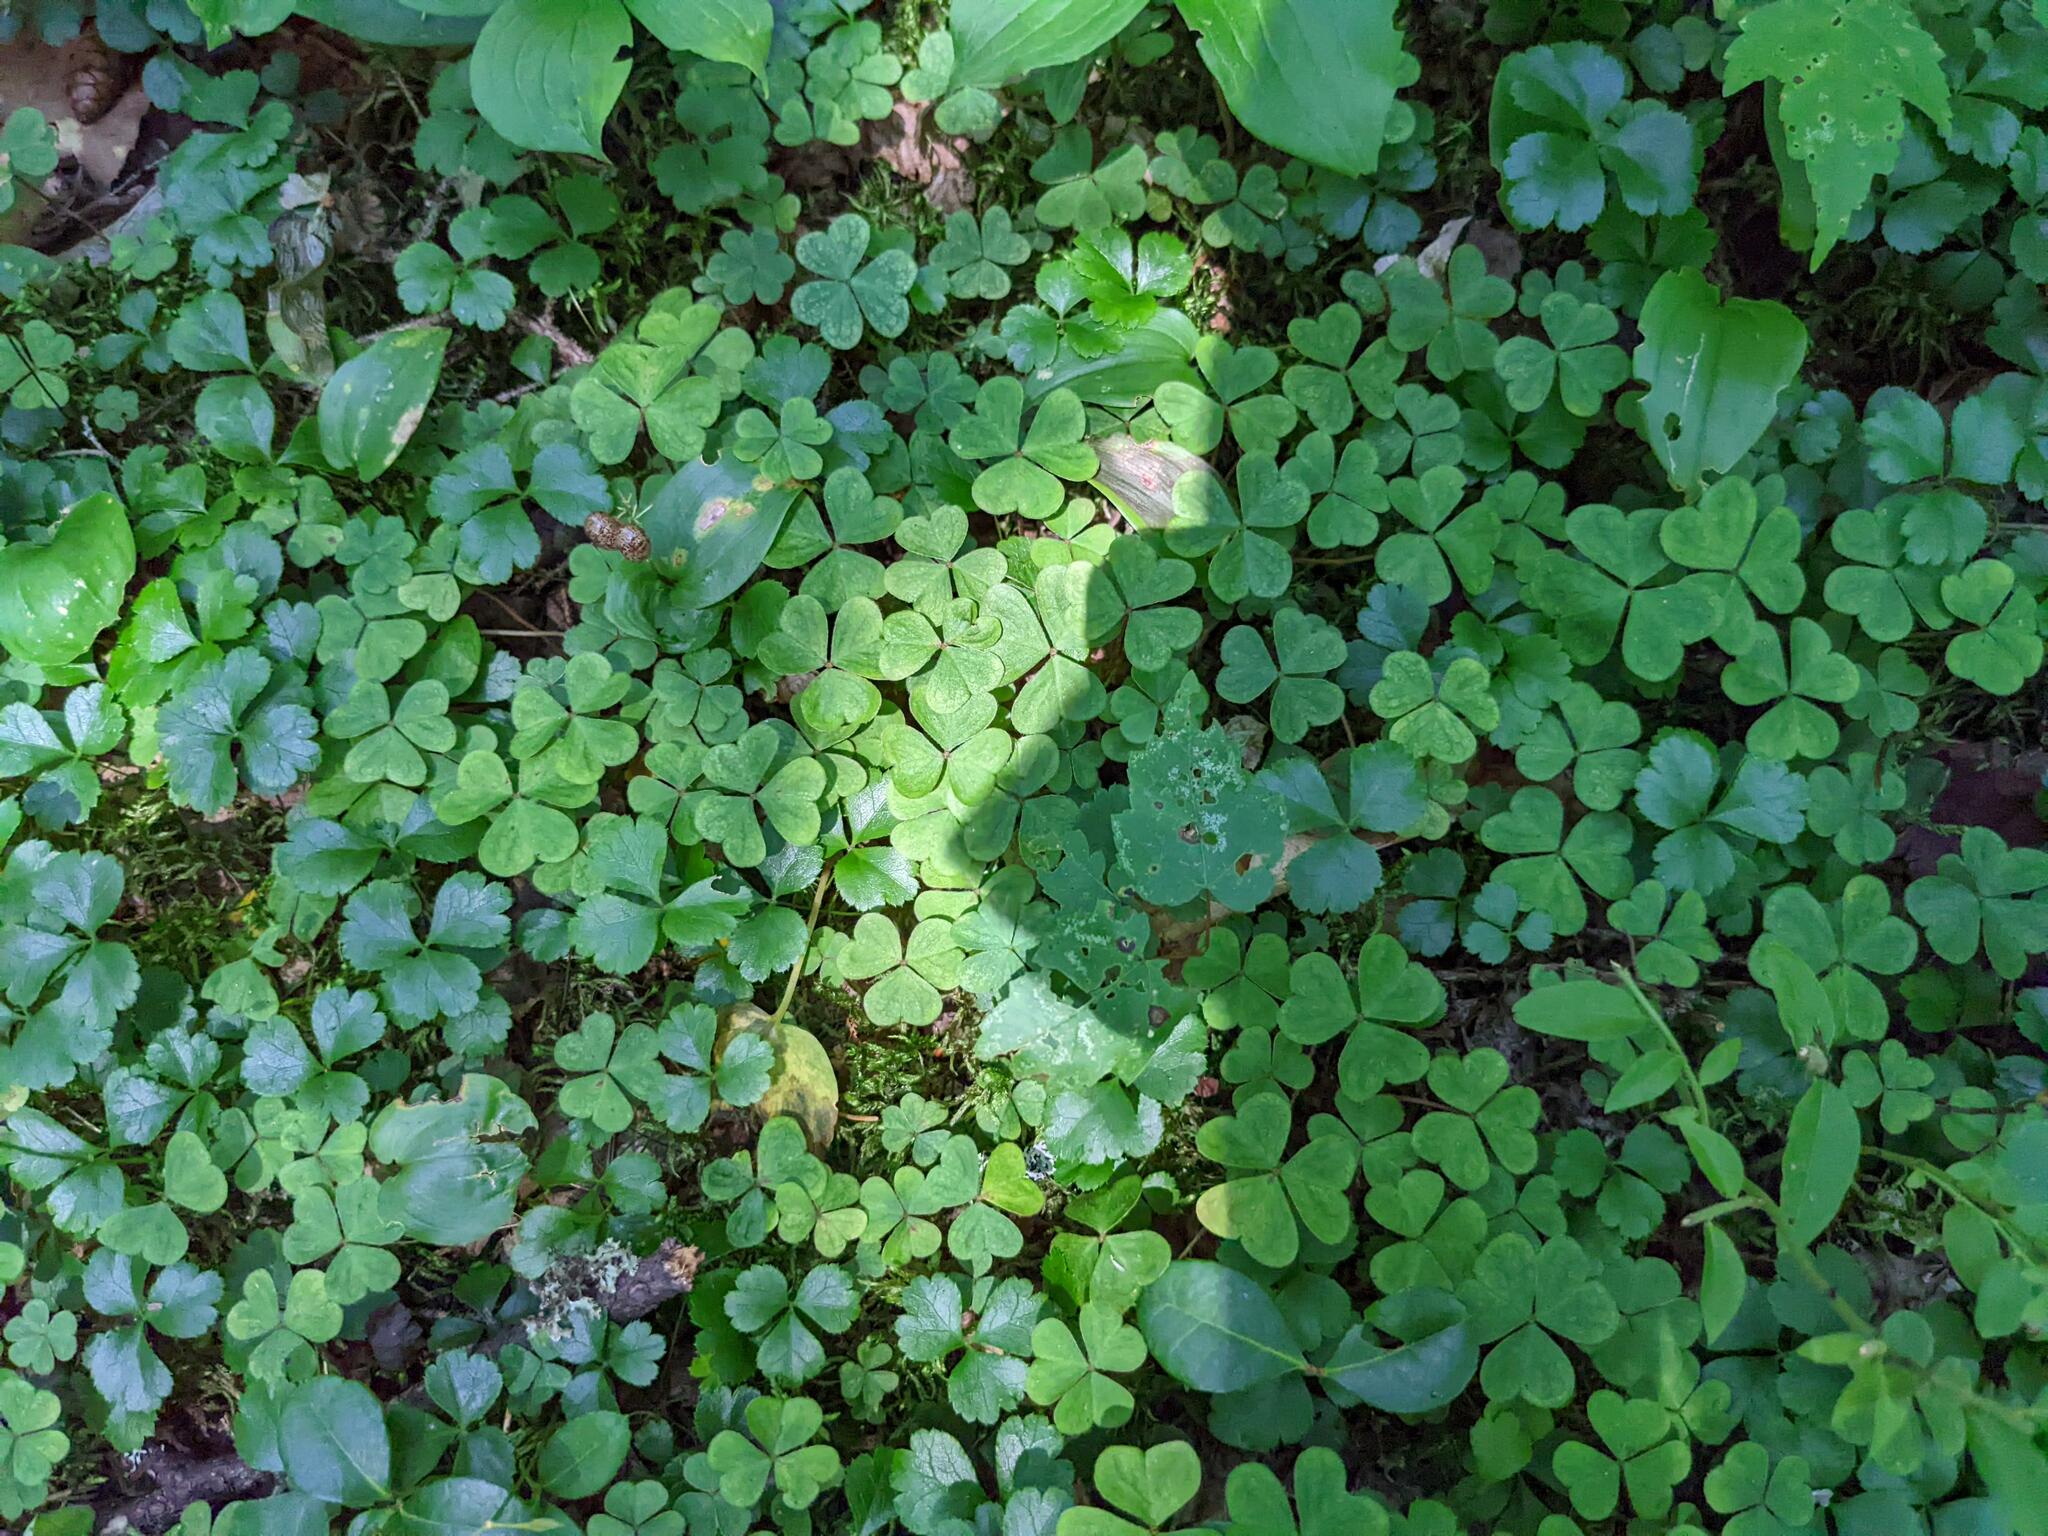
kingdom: Plantae
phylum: Tracheophyta
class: Magnoliopsida
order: Oxalidales
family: Oxalidaceae
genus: Oxalis
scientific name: Oxalis montana
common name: American wood-sorrel
